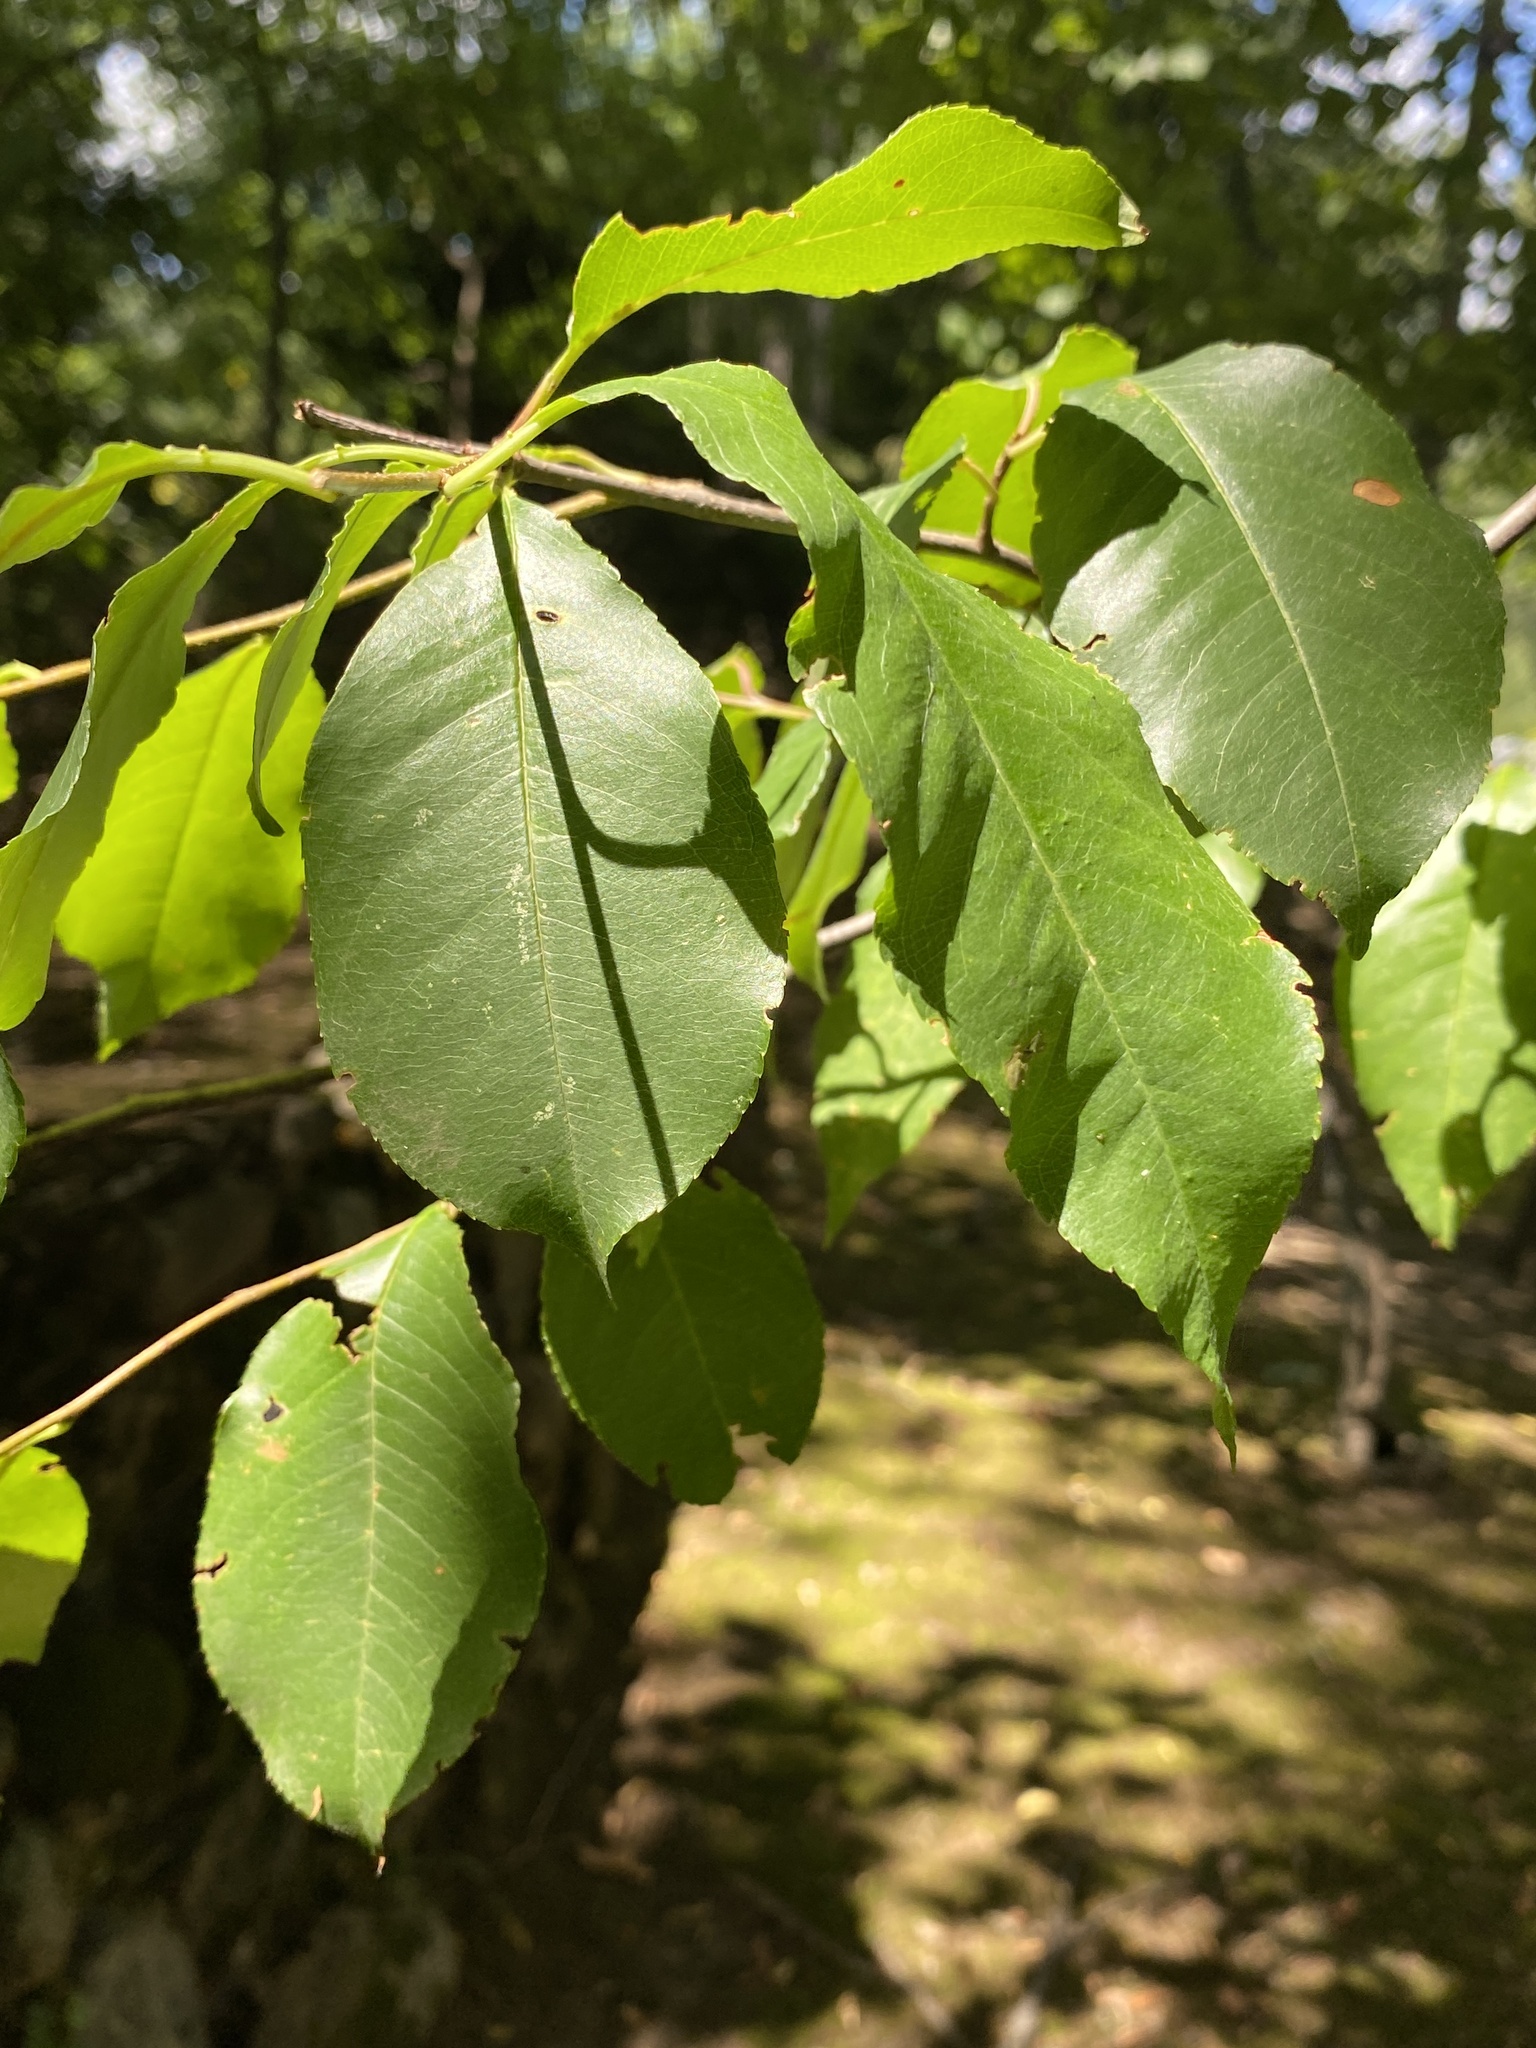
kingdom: Plantae
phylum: Tracheophyta
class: Magnoliopsida
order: Rosales
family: Rosaceae
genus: Prunus
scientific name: Prunus serotina
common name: Black cherry
